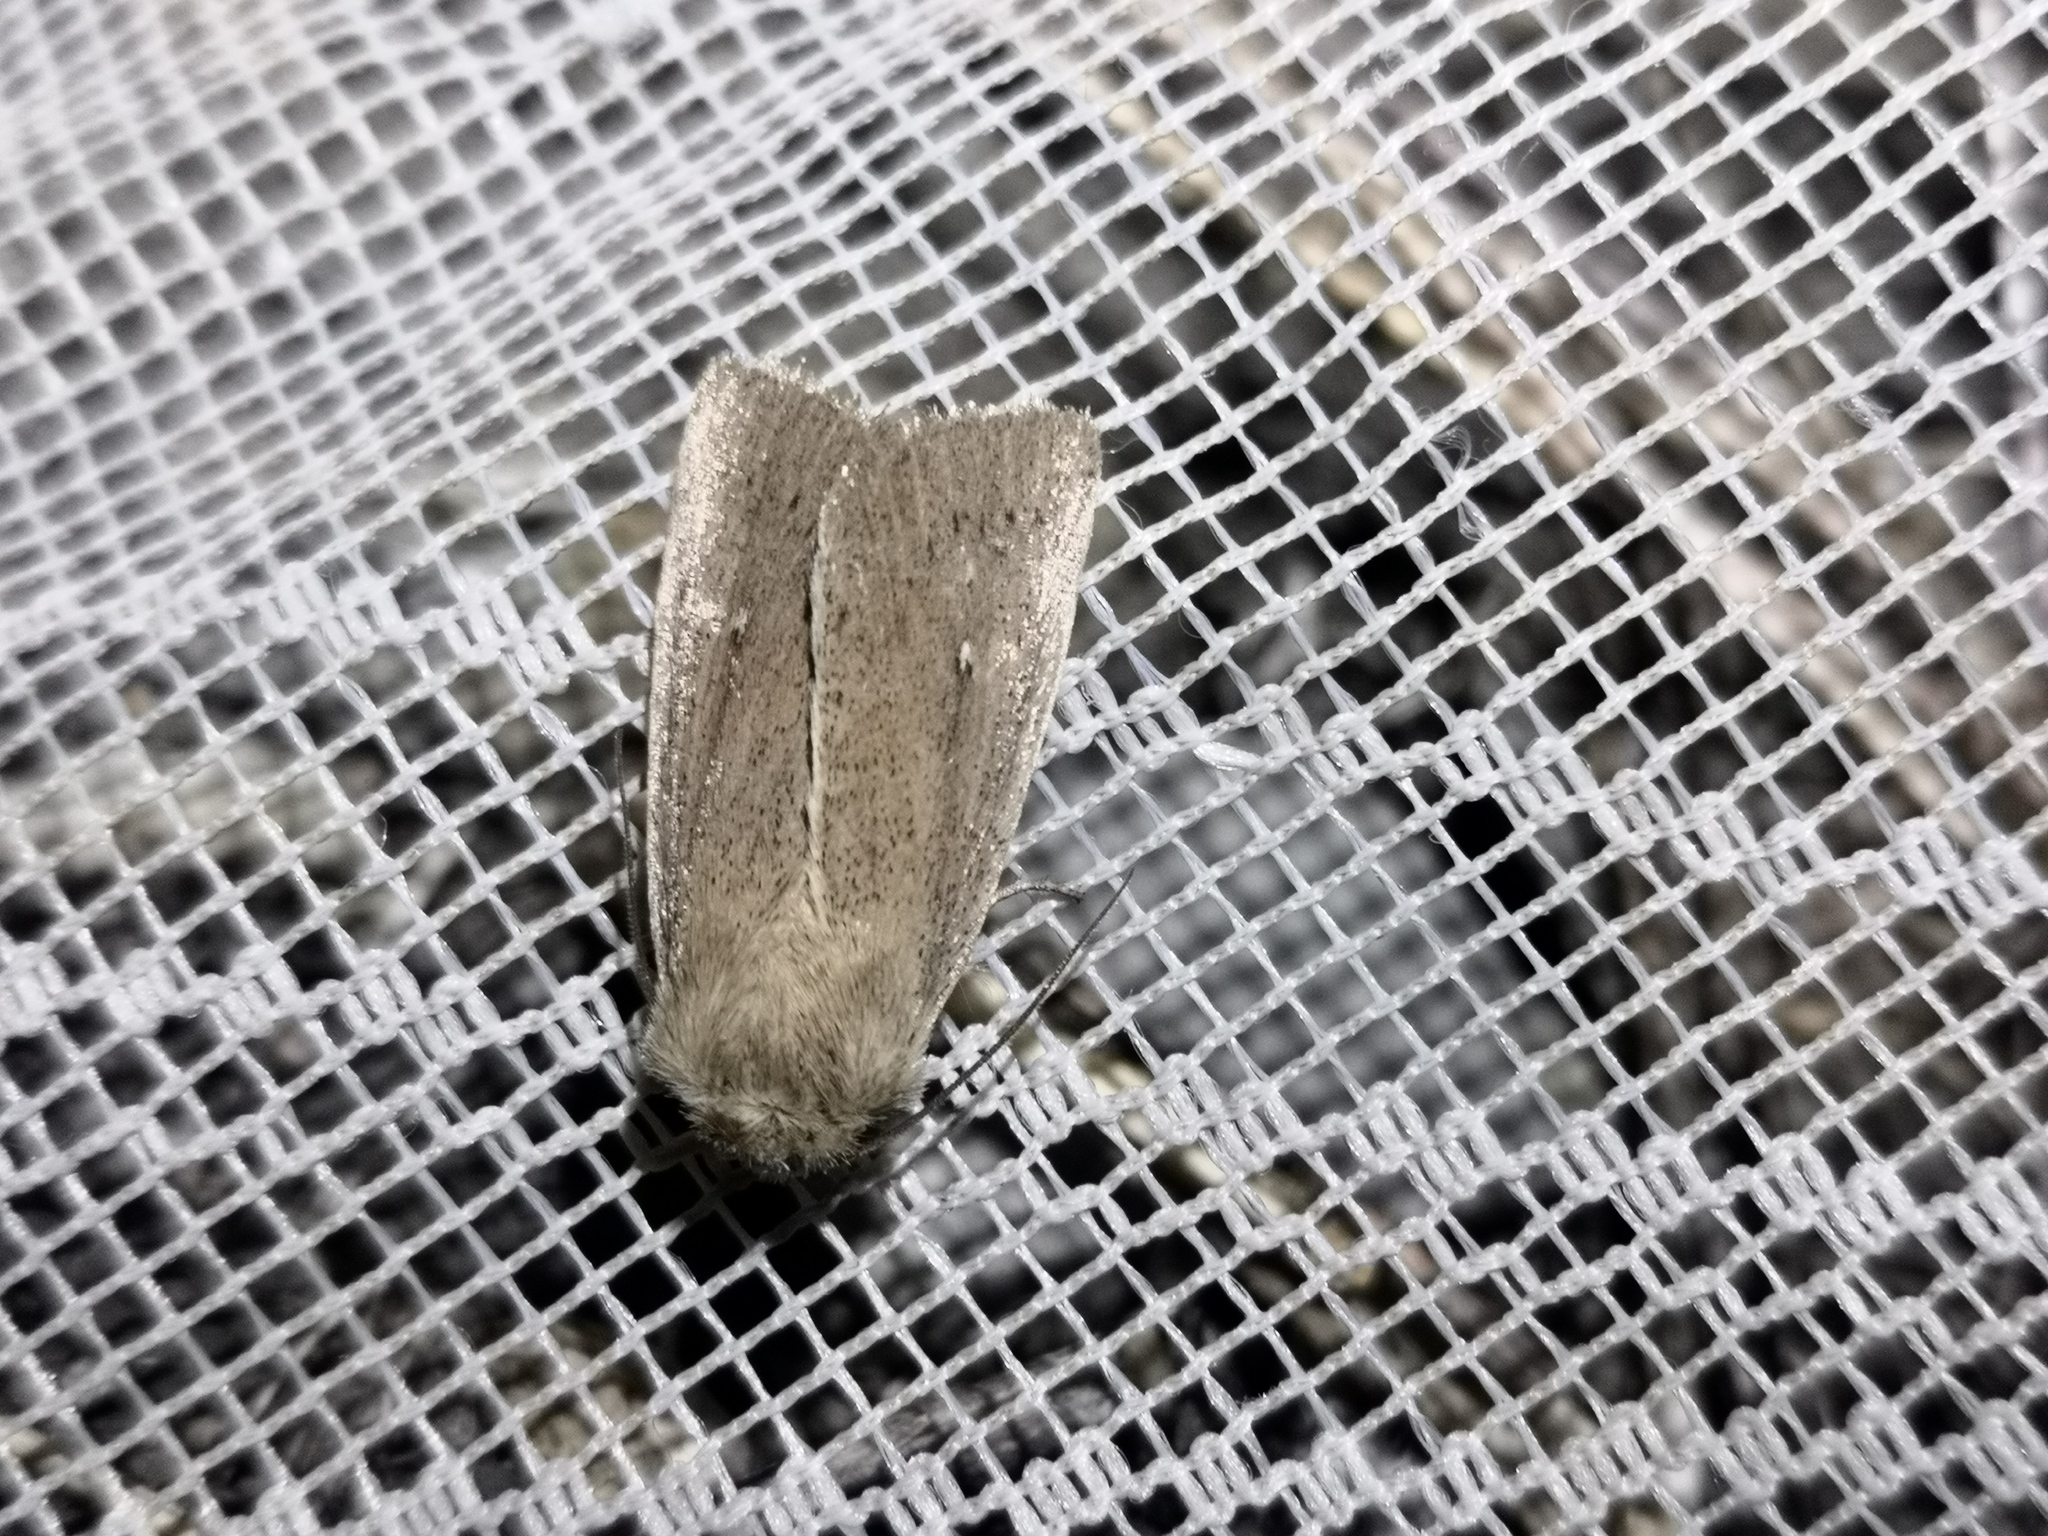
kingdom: Animalia
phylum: Arthropoda
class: Insecta
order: Lepidoptera
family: Noctuidae
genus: Mythimna
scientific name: Mythimna sicula
